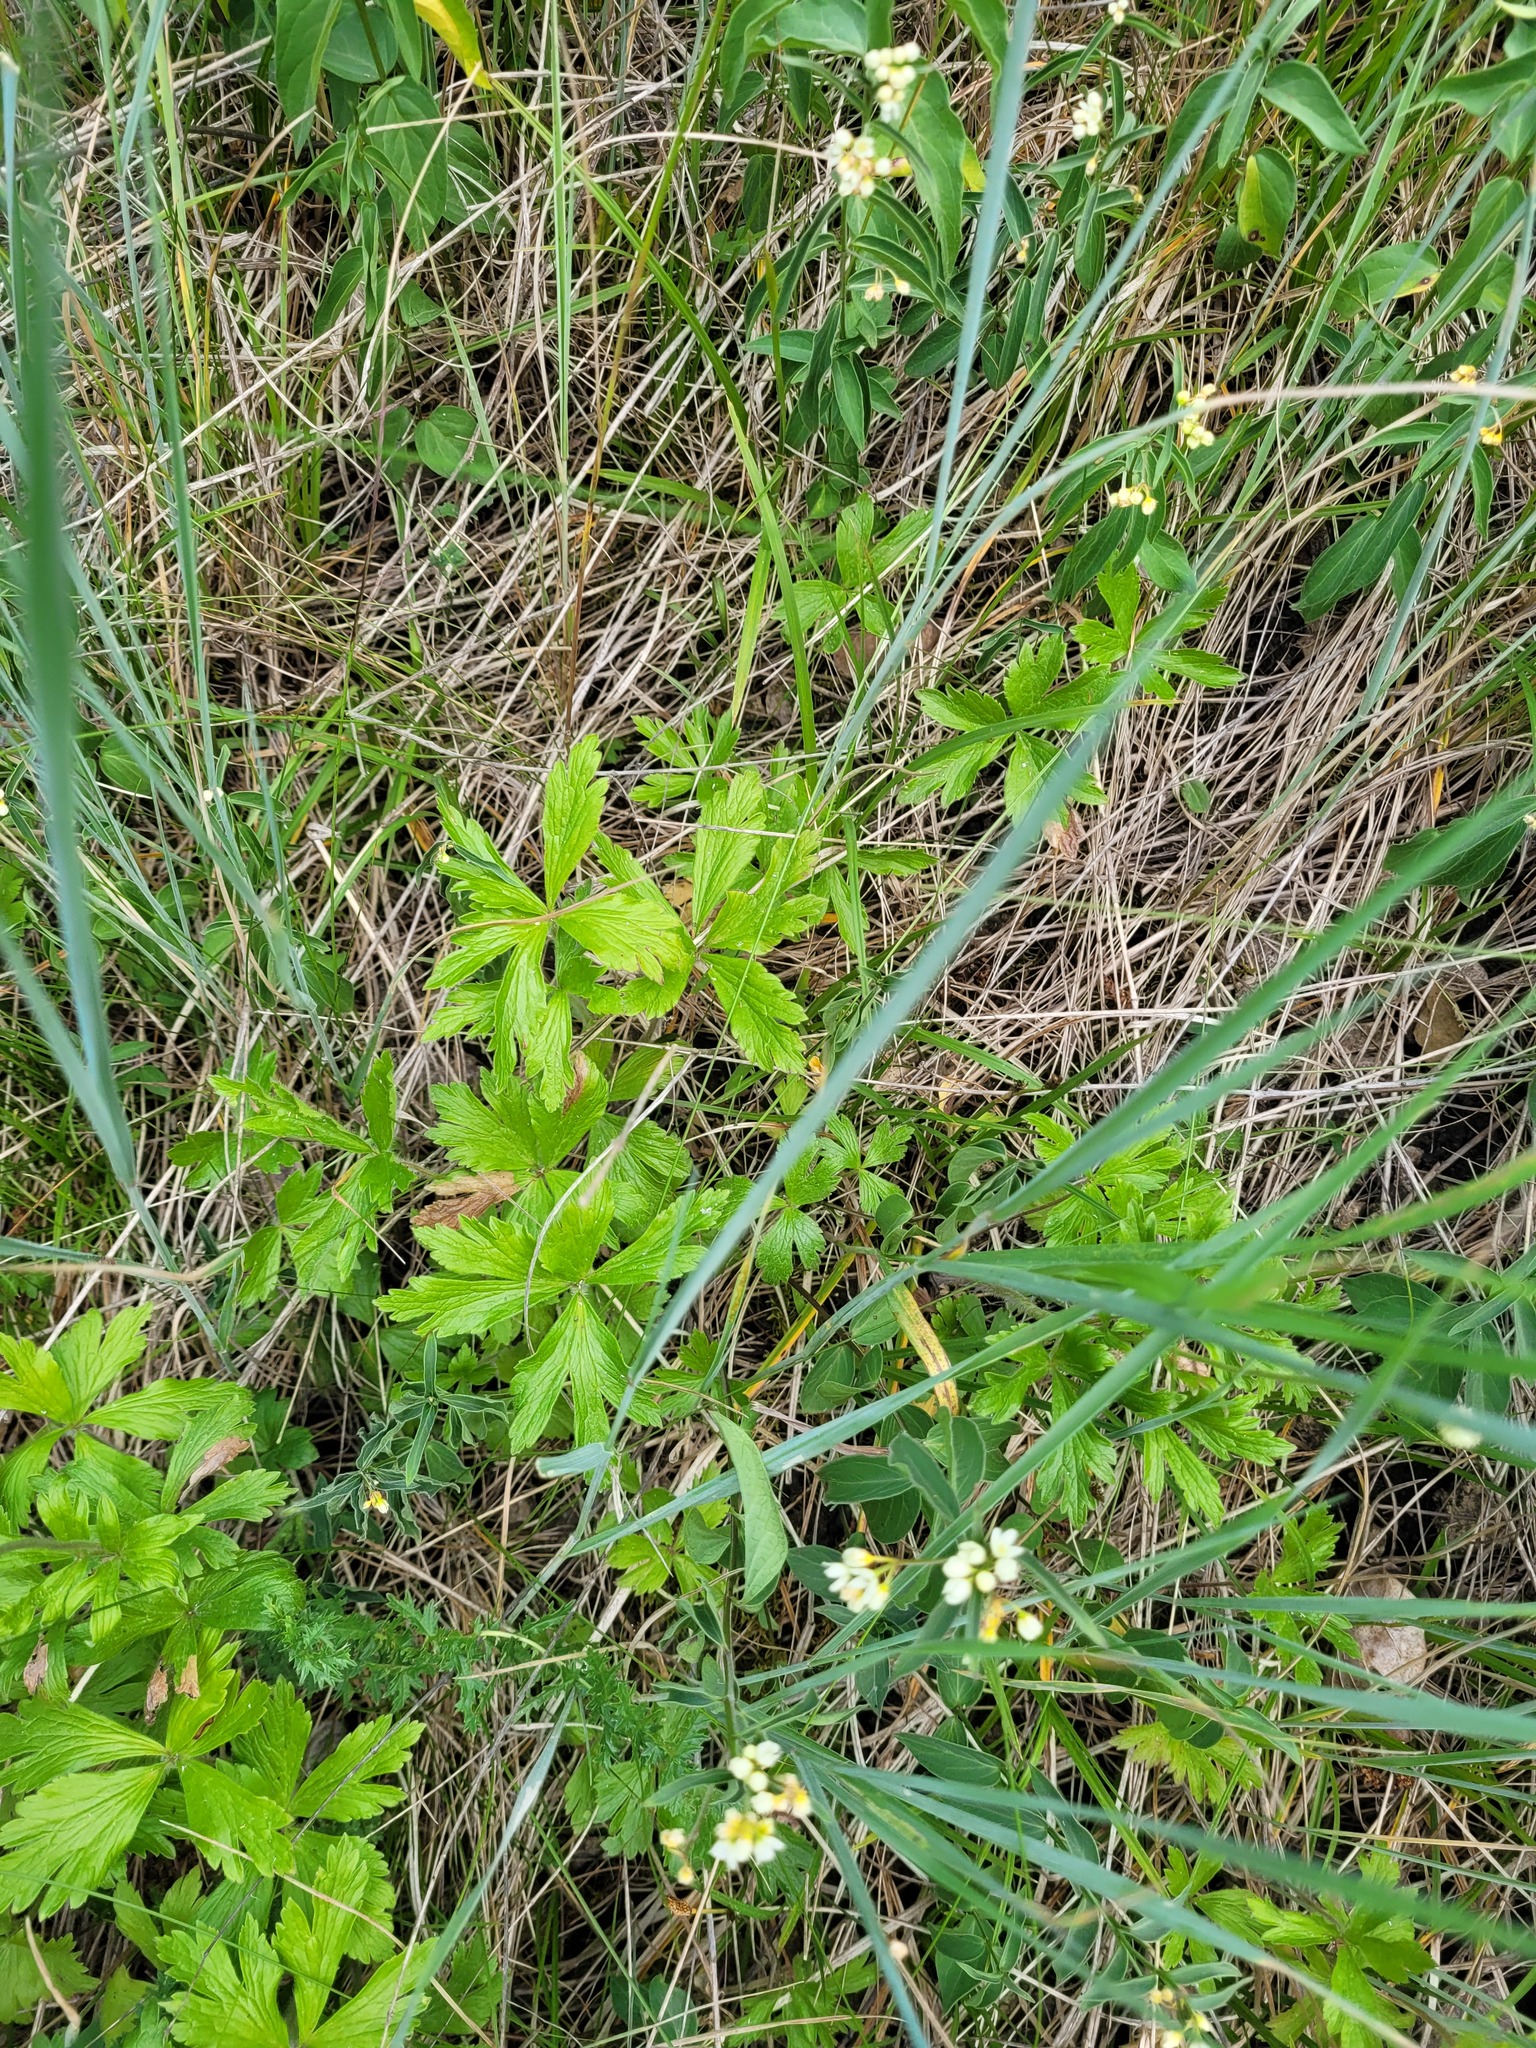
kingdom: Plantae
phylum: Tracheophyta
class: Magnoliopsida
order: Ranunculales
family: Ranunculaceae
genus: Anemone
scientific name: Anemone sylvestris
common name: Snowdrop anemone
